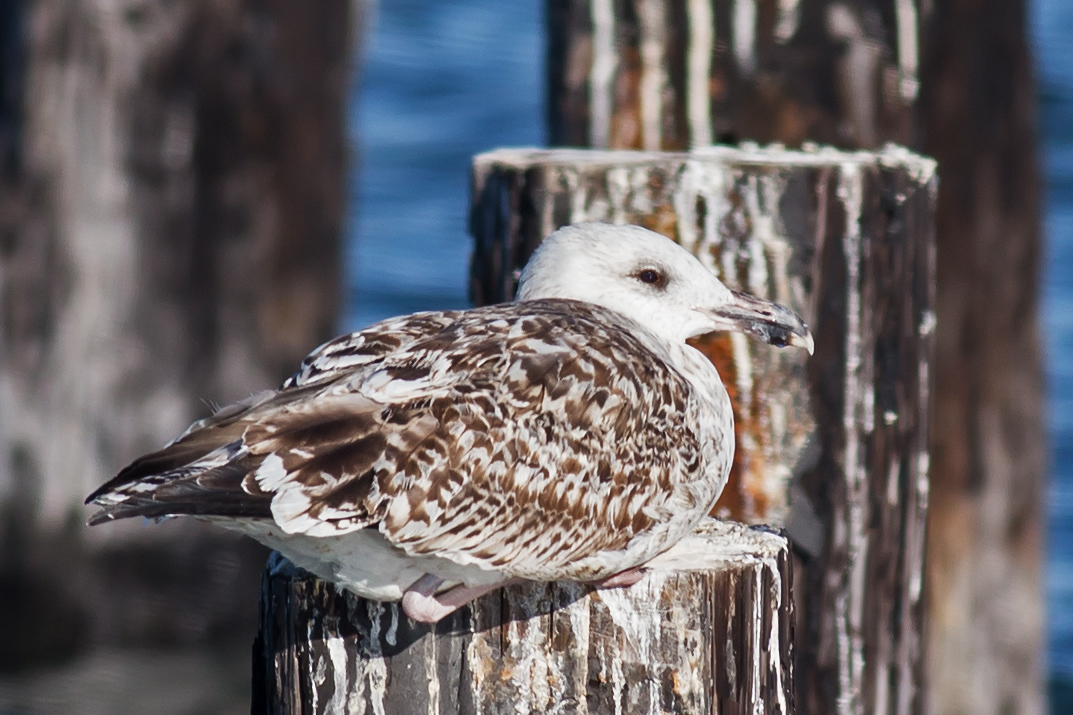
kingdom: Animalia
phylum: Chordata
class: Aves
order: Charadriiformes
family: Laridae
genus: Larus
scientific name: Larus marinus
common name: Great black-backed gull
